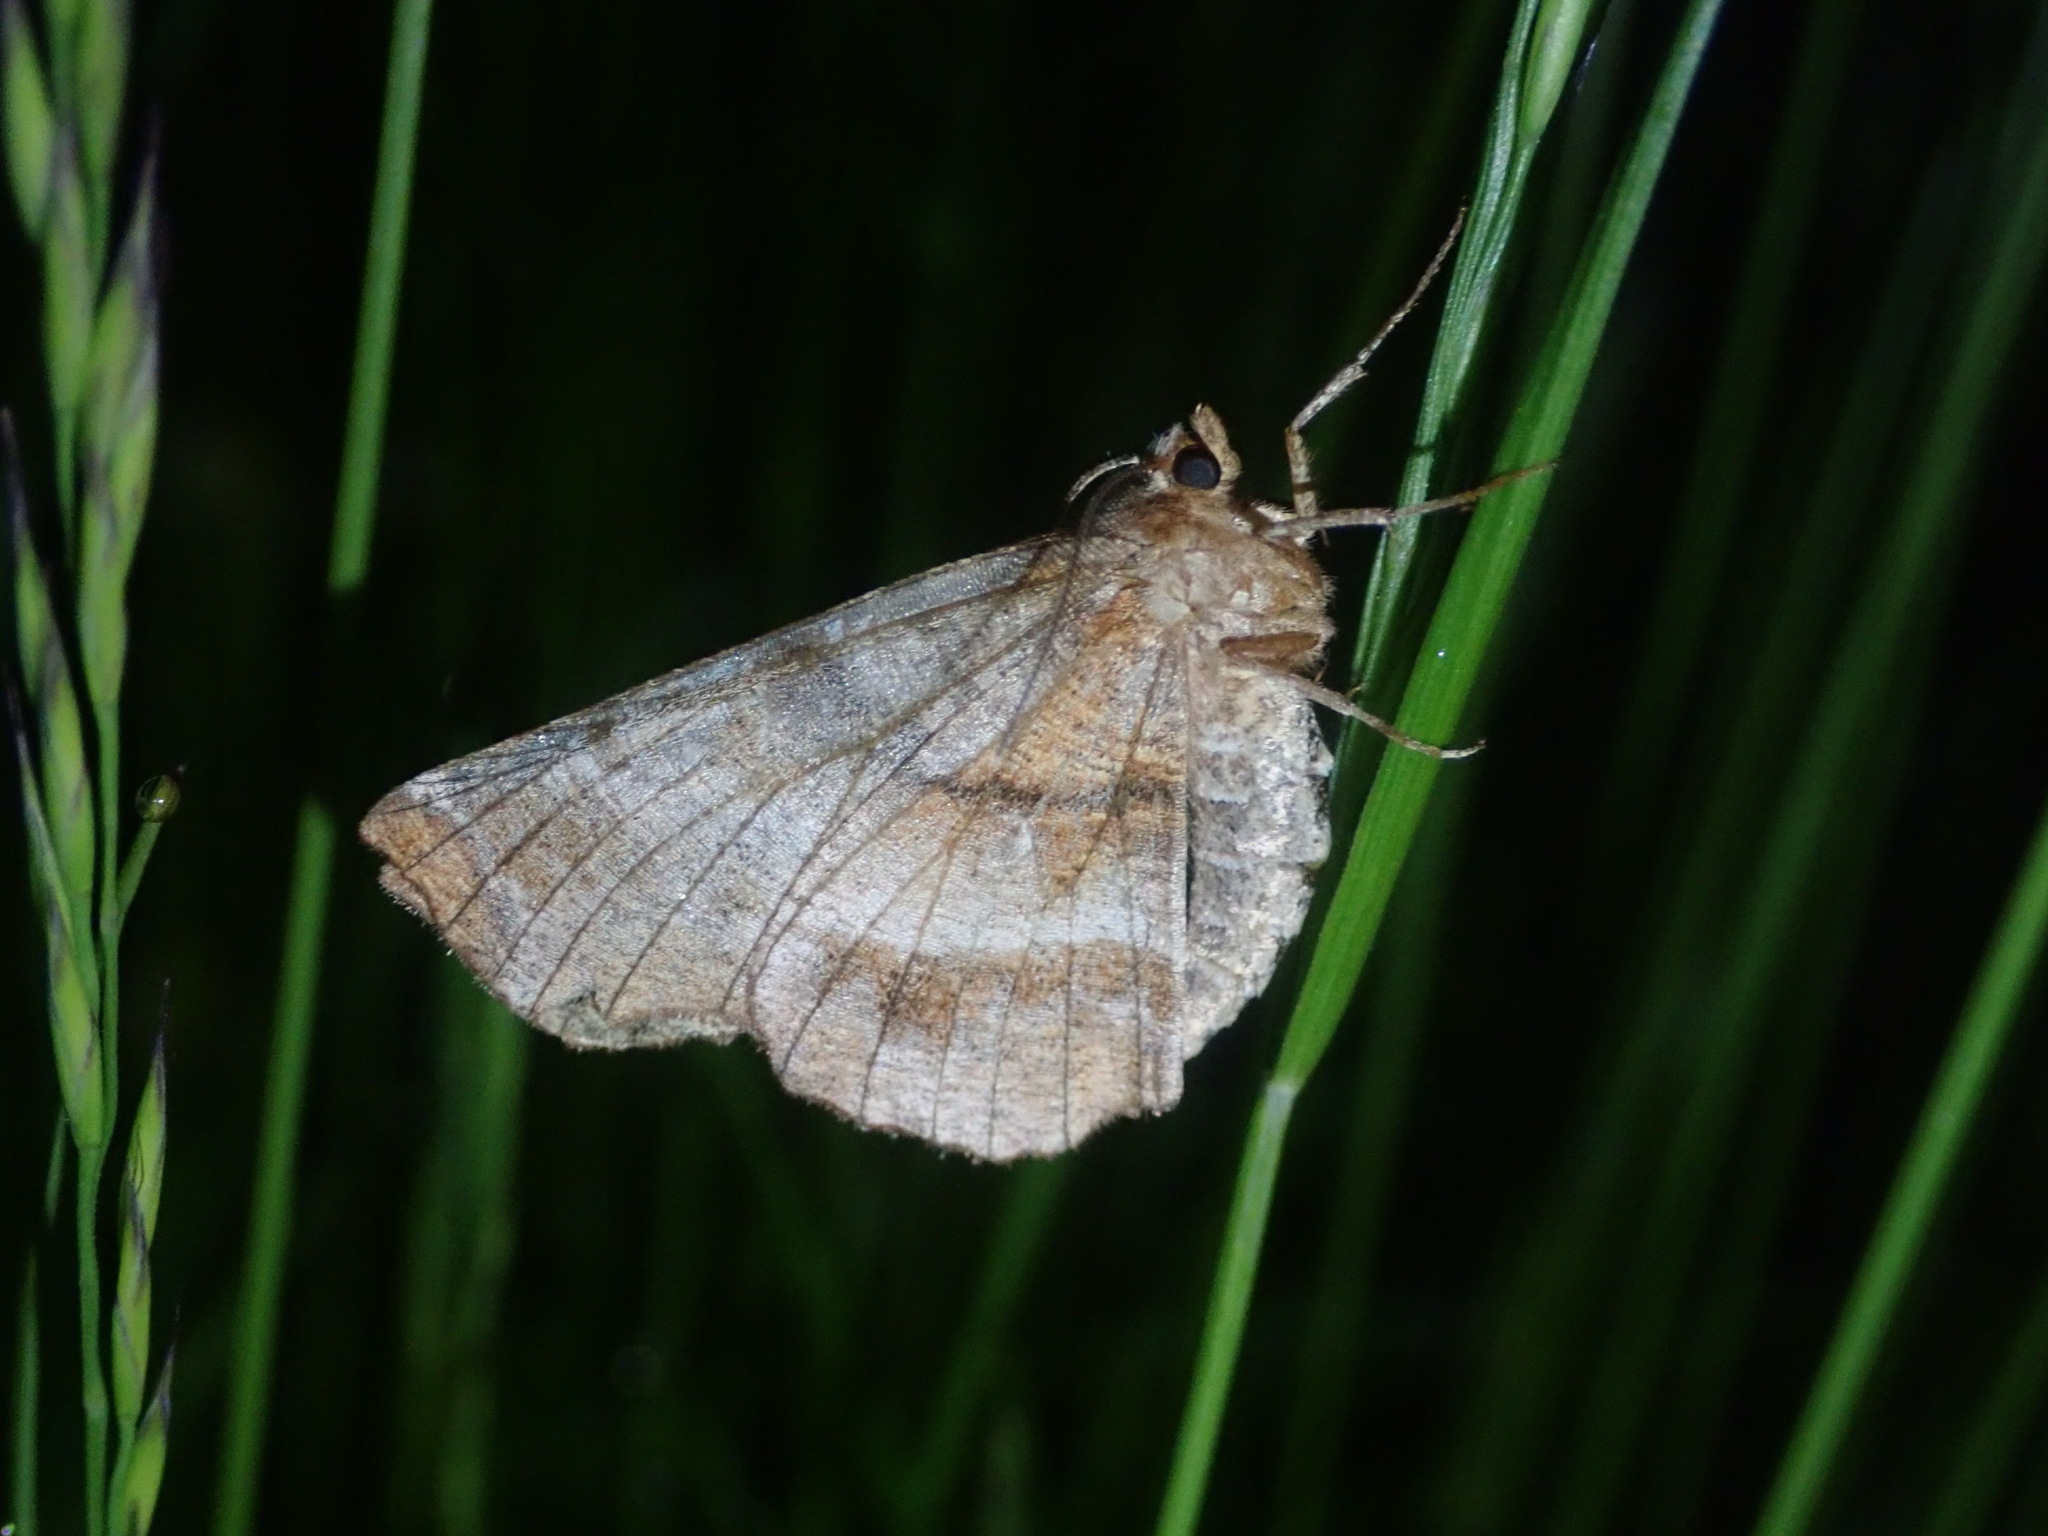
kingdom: Animalia
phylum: Arthropoda
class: Insecta
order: Lepidoptera
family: Geometridae
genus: Selenia
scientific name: Selenia dentaria
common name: Early thorn
